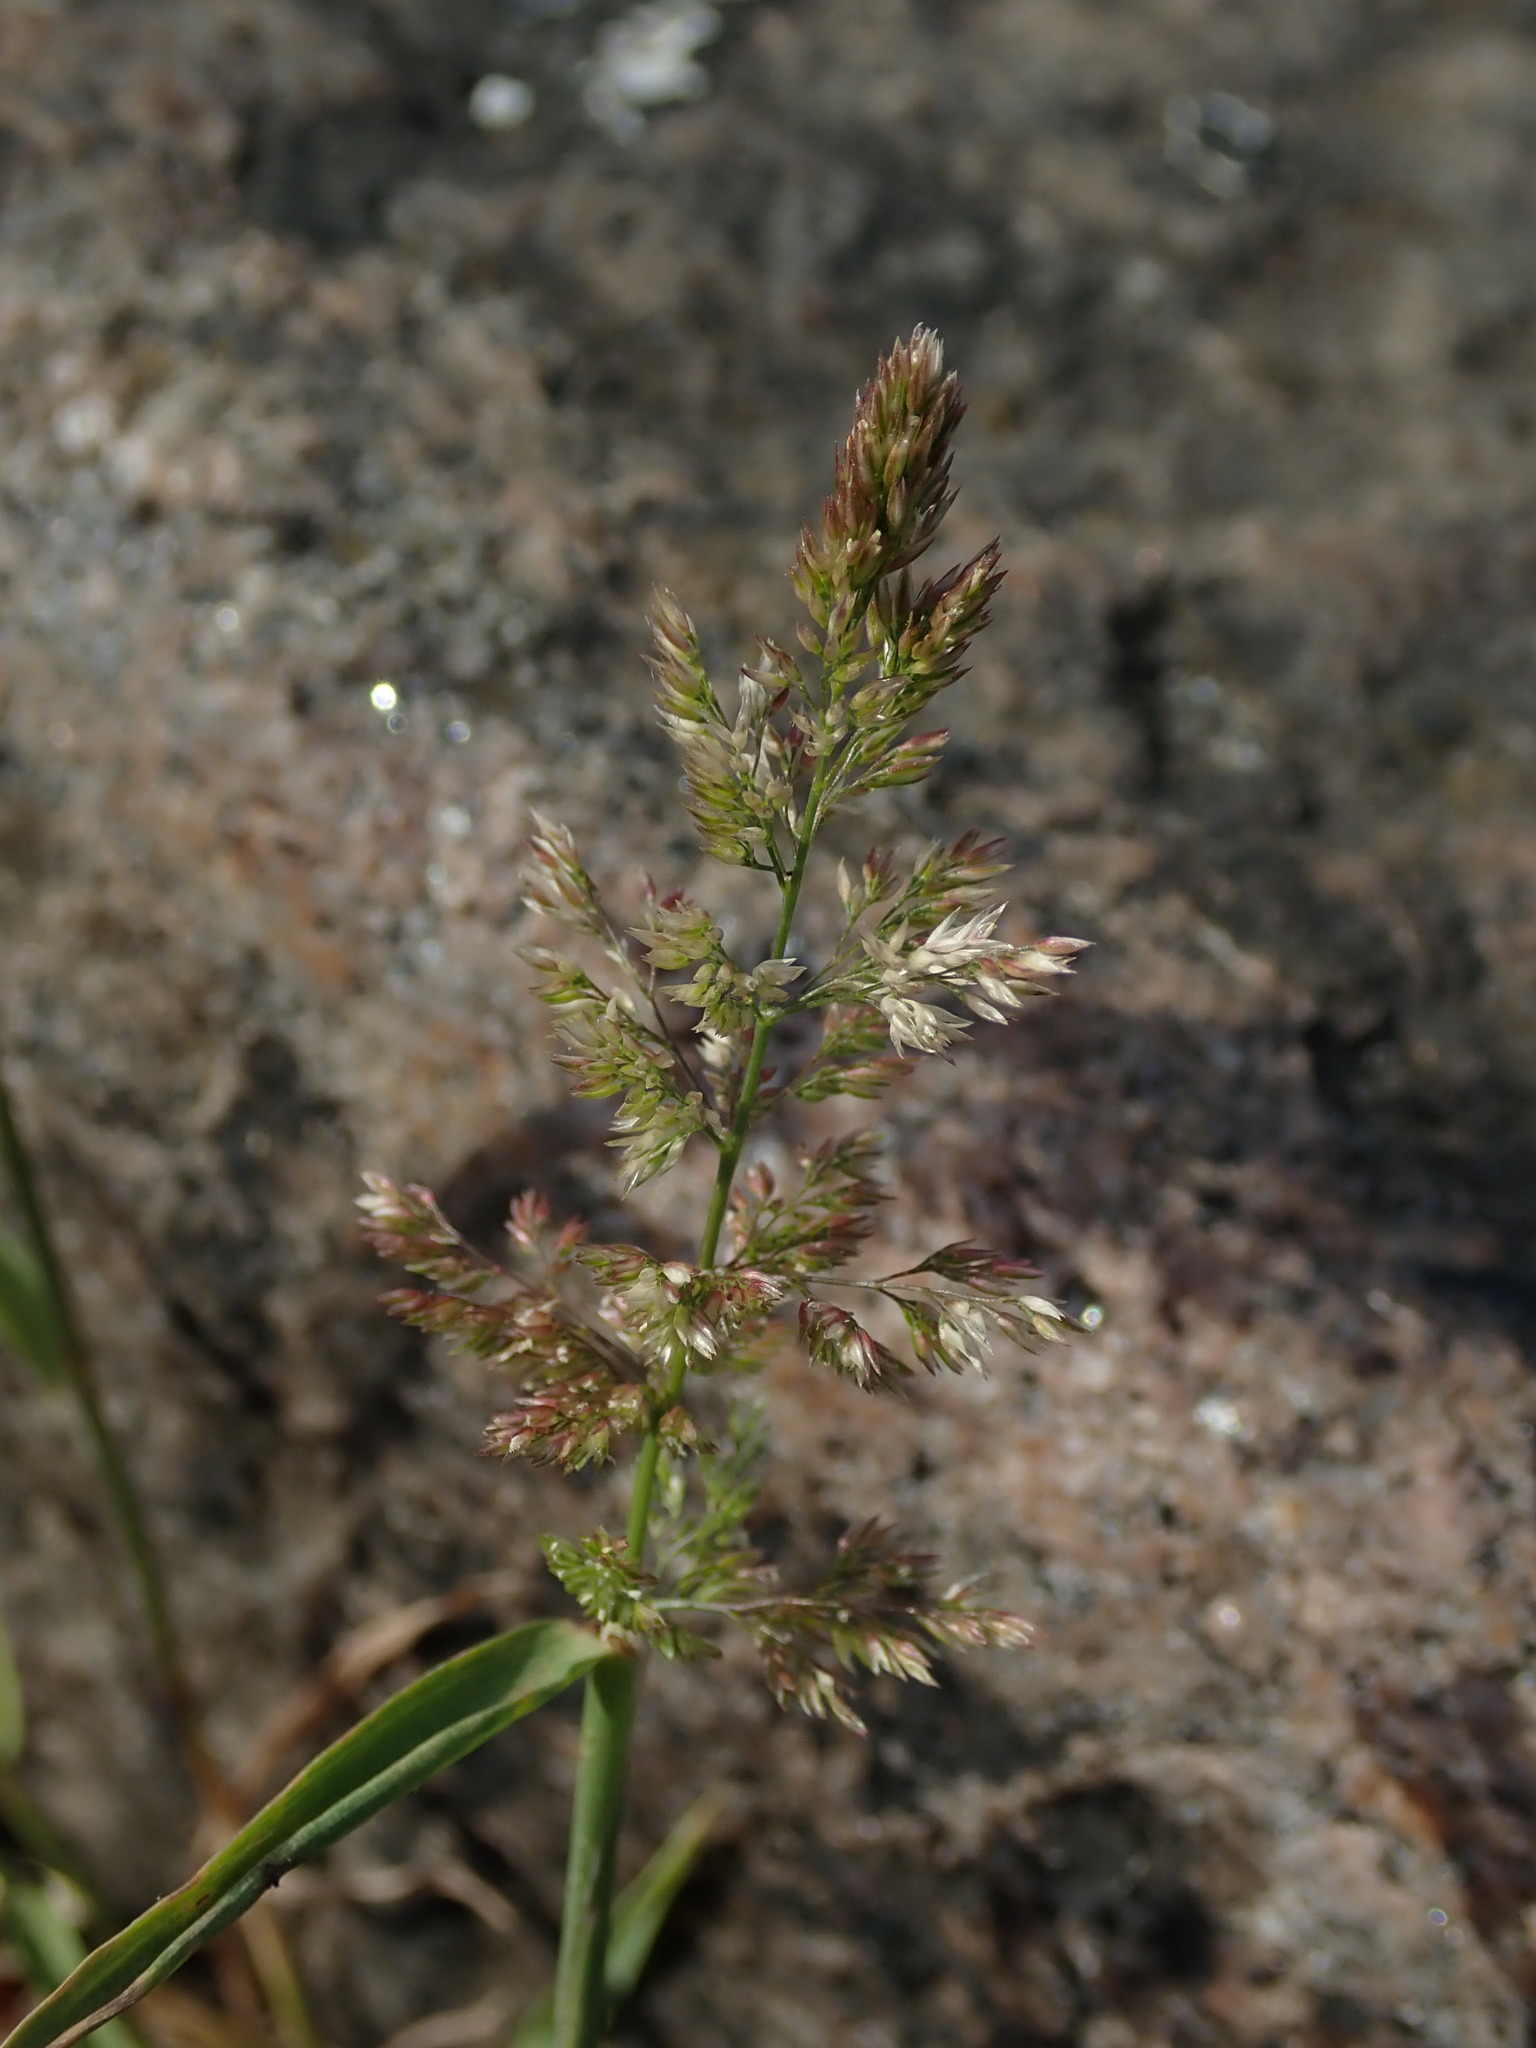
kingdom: Plantae
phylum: Tracheophyta
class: Liliopsida
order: Poales
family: Poaceae
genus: Polypogon
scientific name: Polypogon viridis
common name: Water bent
